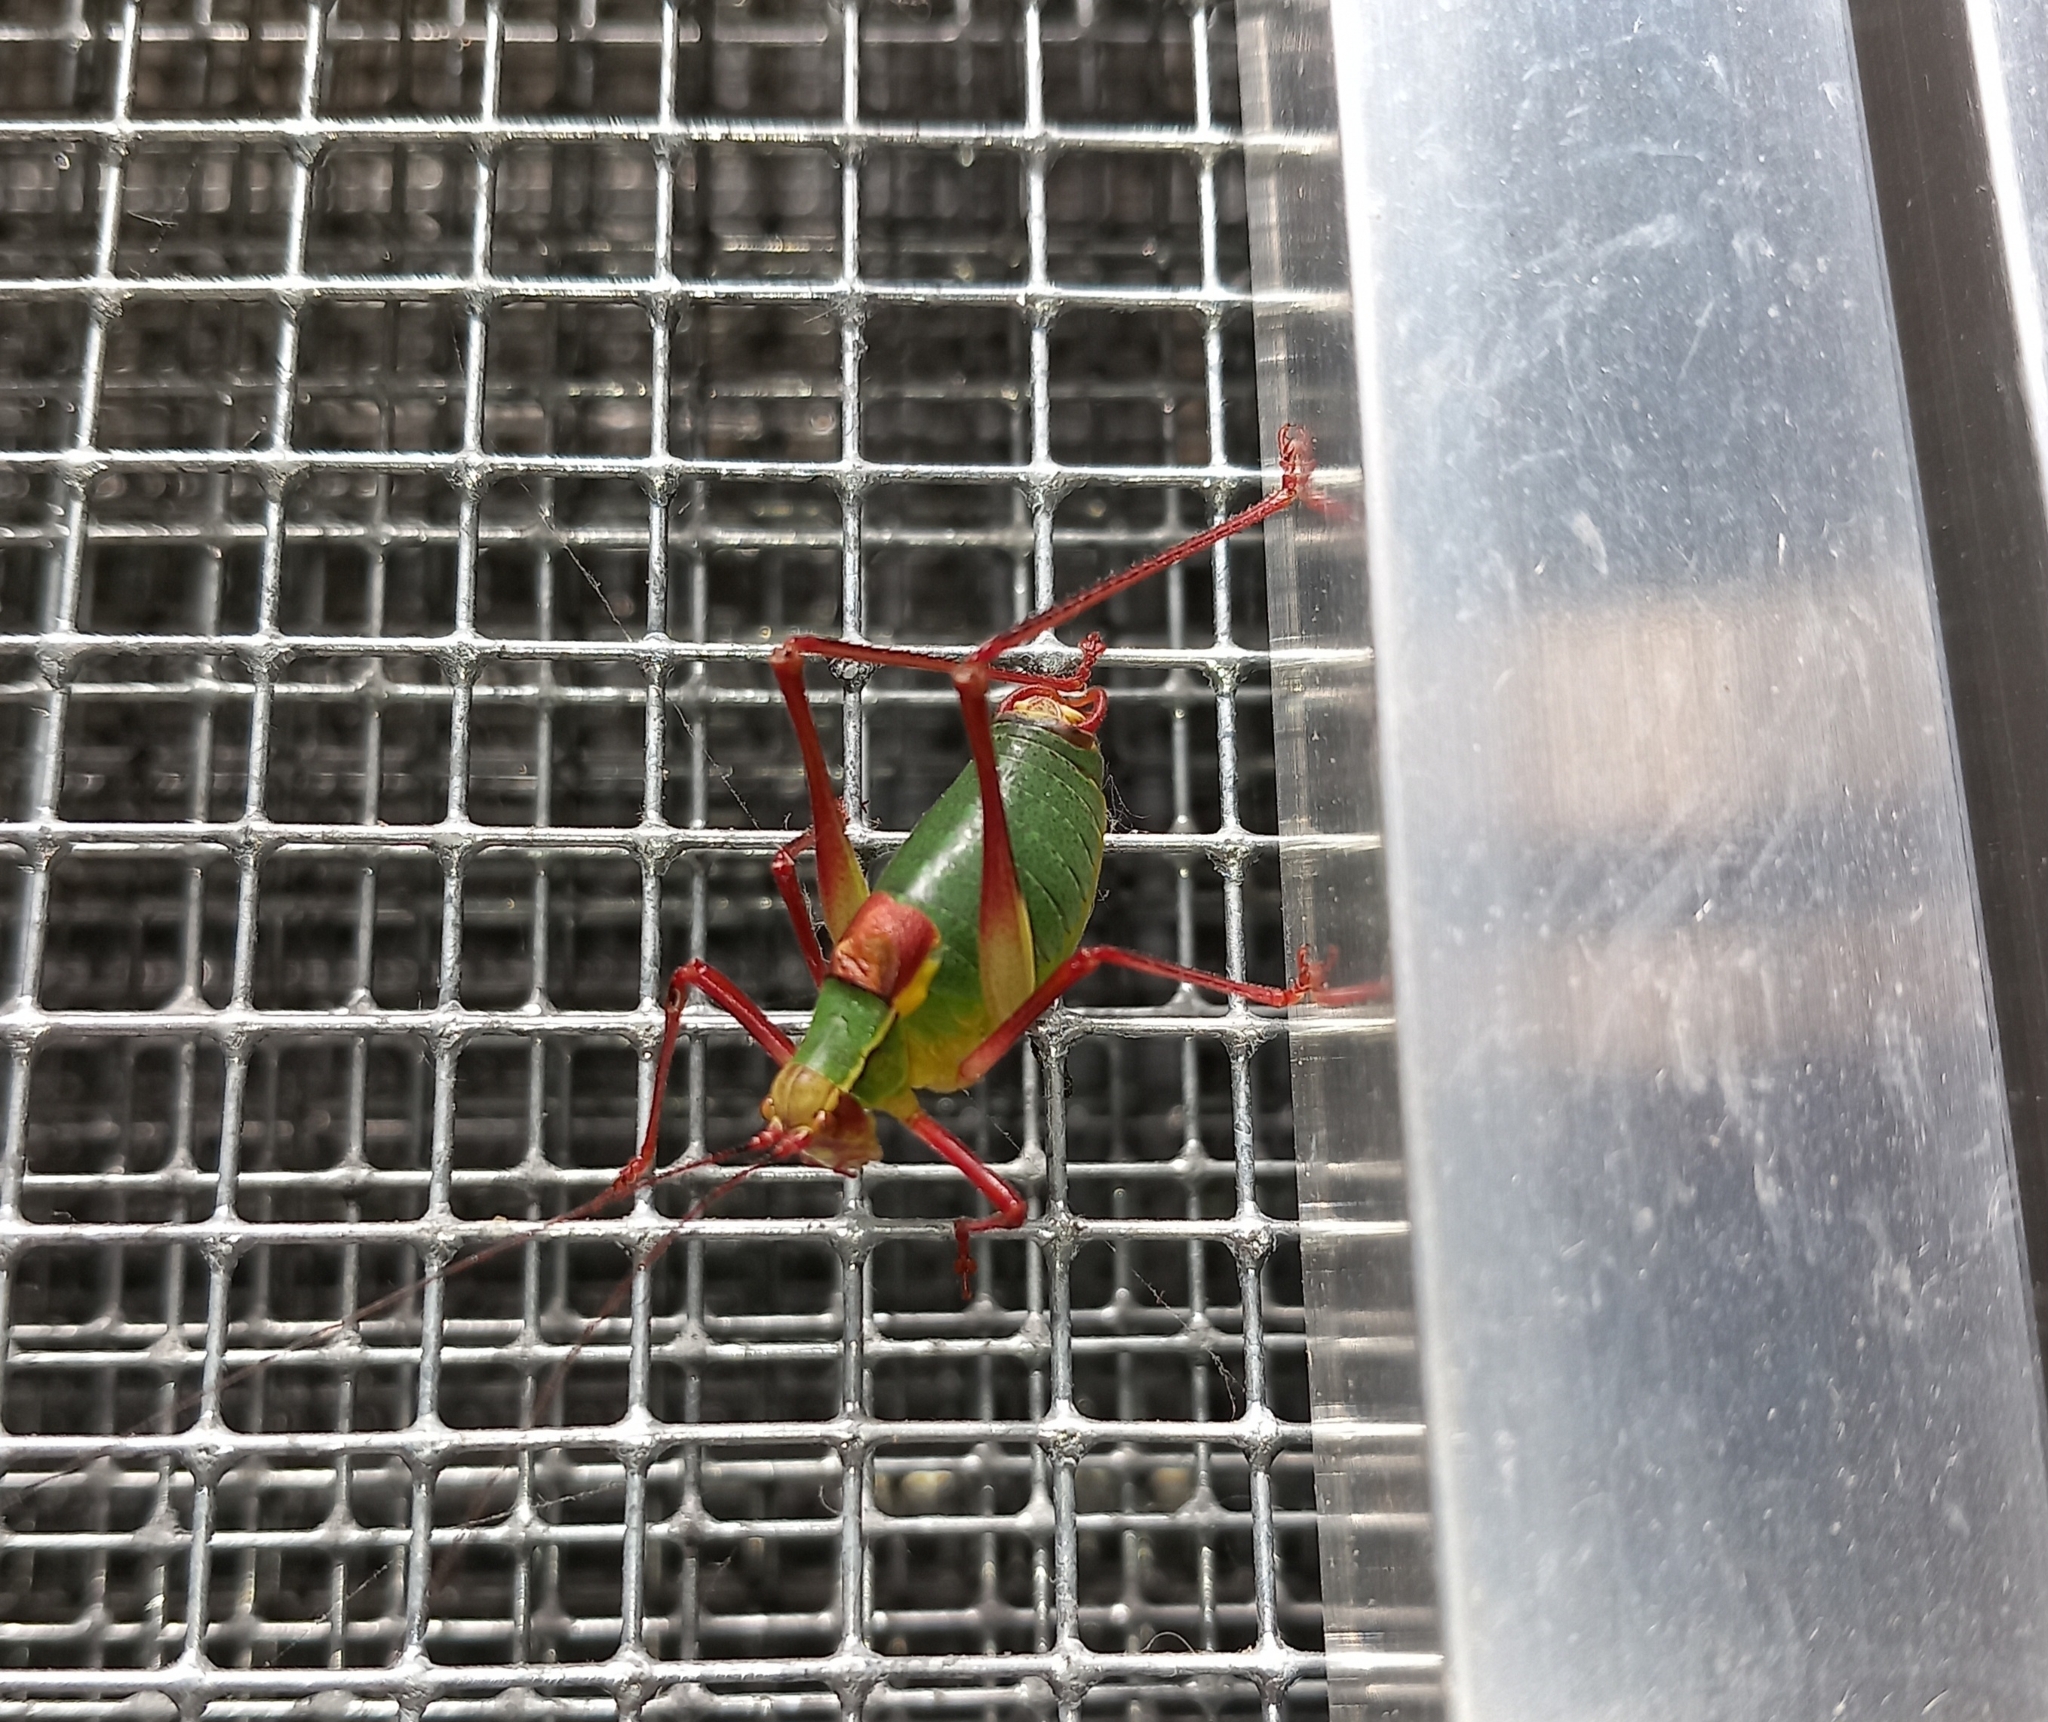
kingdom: Animalia
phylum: Arthropoda
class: Insecta
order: Orthoptera
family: Tettigoniidae
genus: Barbitistes
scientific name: Barbitistes serricauda
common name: Saw-tailed bush-cricket
